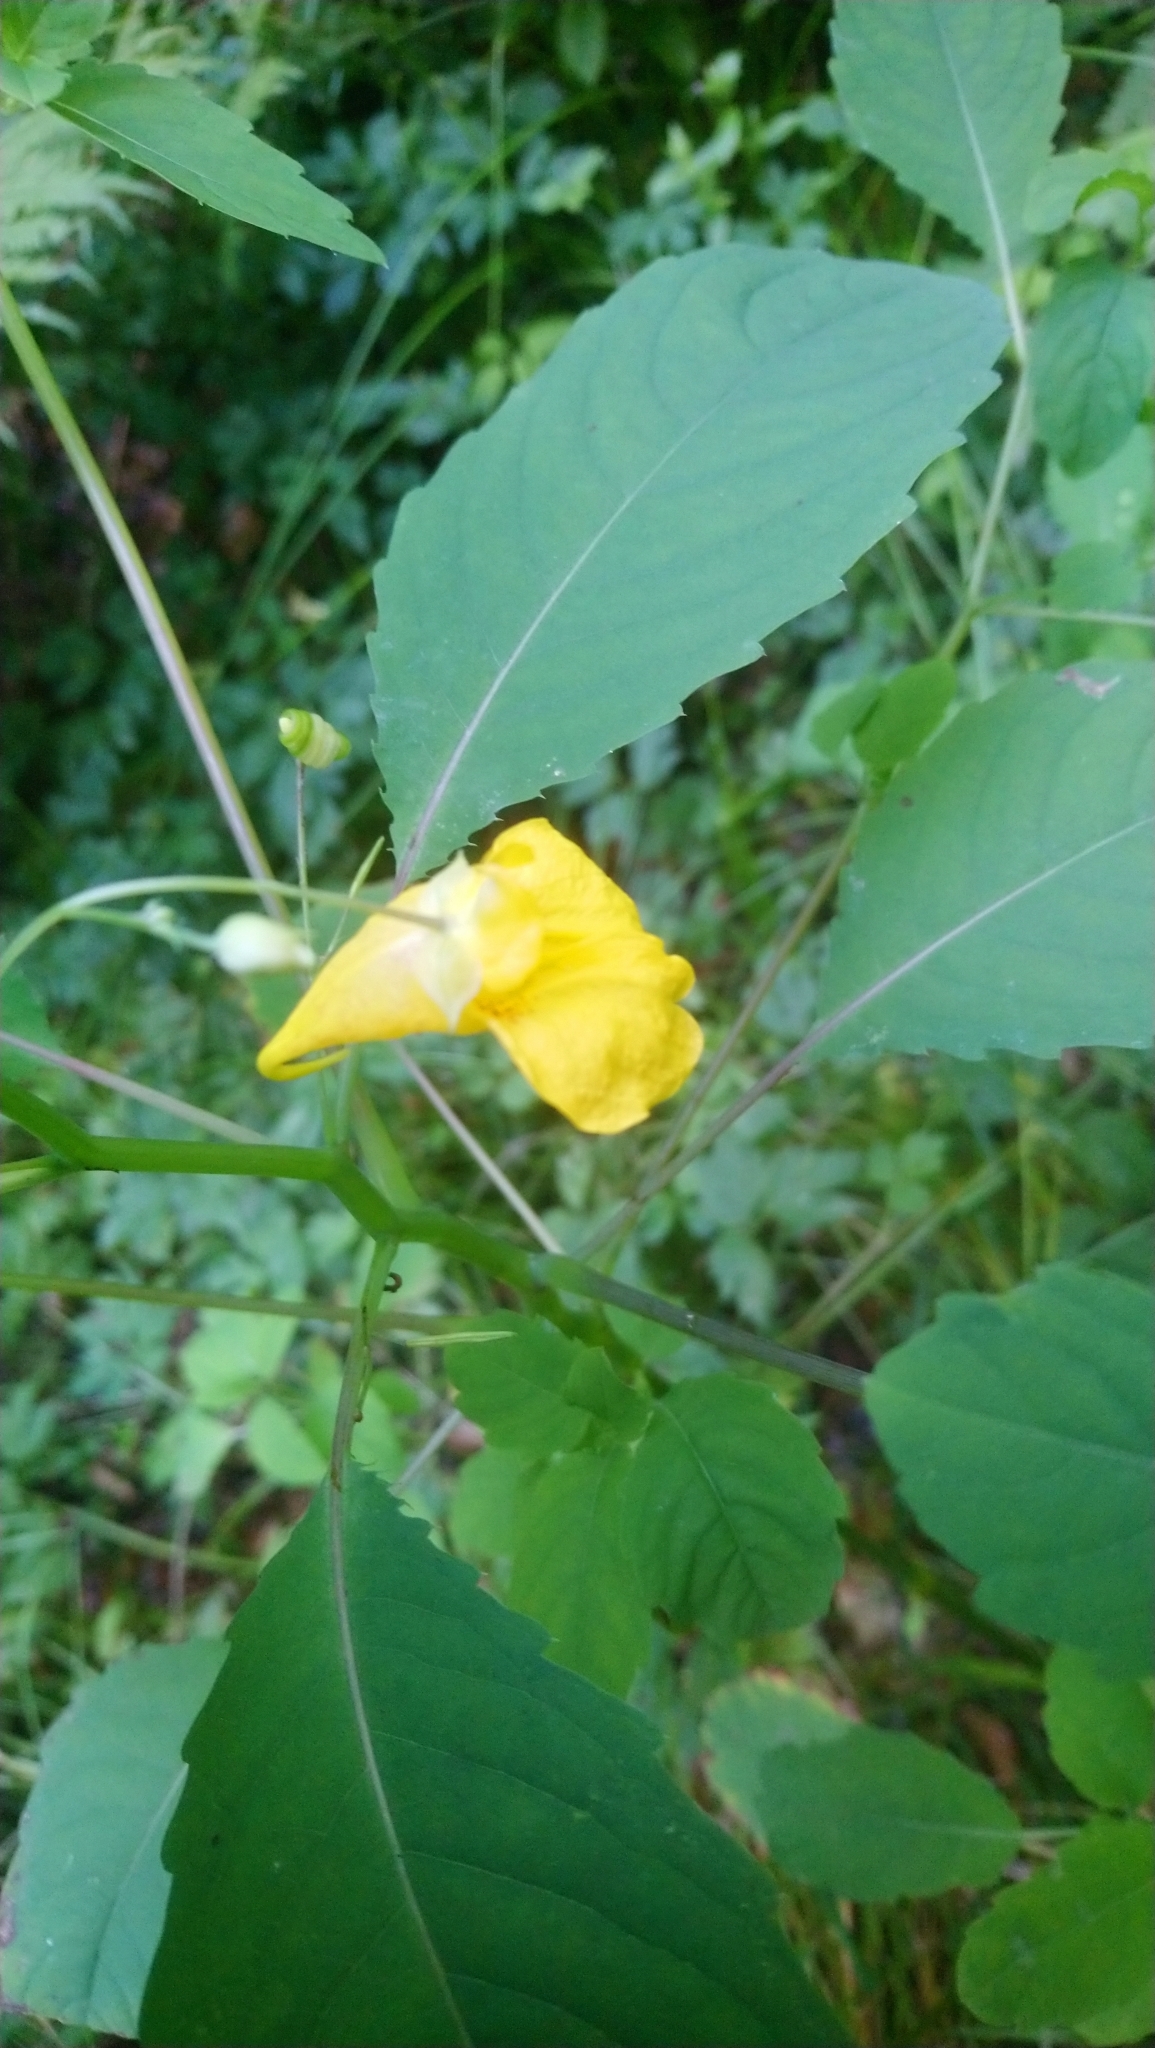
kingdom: Plantae
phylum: Tracheophyta
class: Magnoliopsida
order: Ericales
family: Balsaminaceae
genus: Impatiens
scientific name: Impatiens noli-tangere
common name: Touch-me-not balsam
